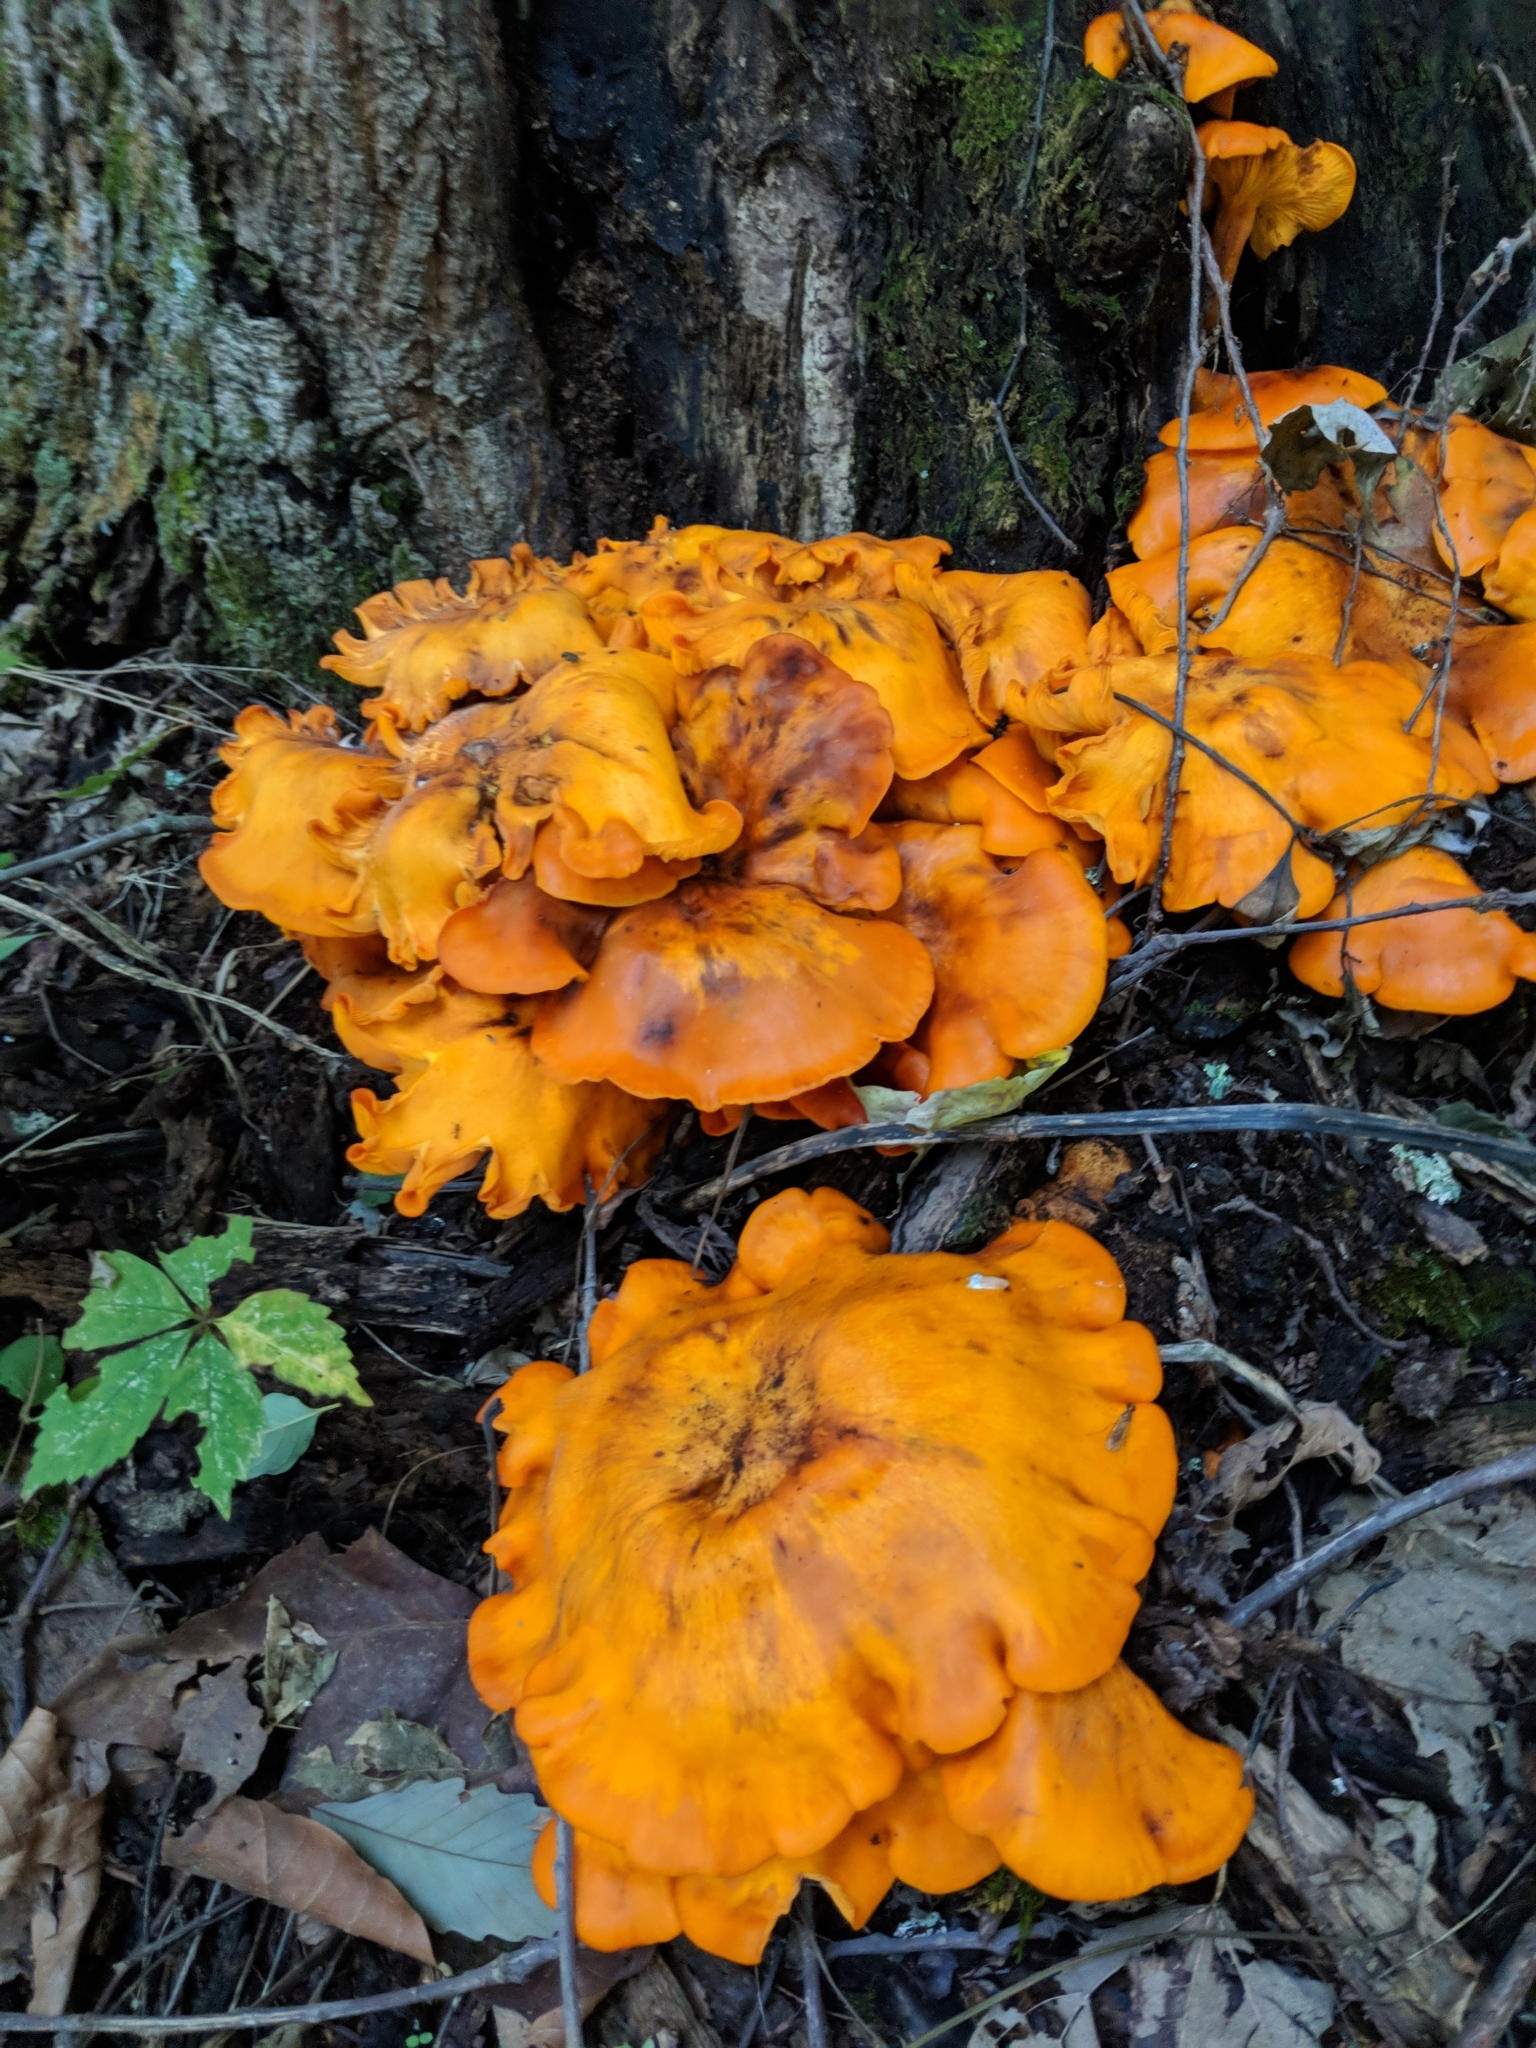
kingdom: Fungi
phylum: Basidiomycota
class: Agaricomycetes
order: Agaricales
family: Omphalotaceae
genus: Omphalotus
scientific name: Omphalotus illudens
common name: Jack o lantern
